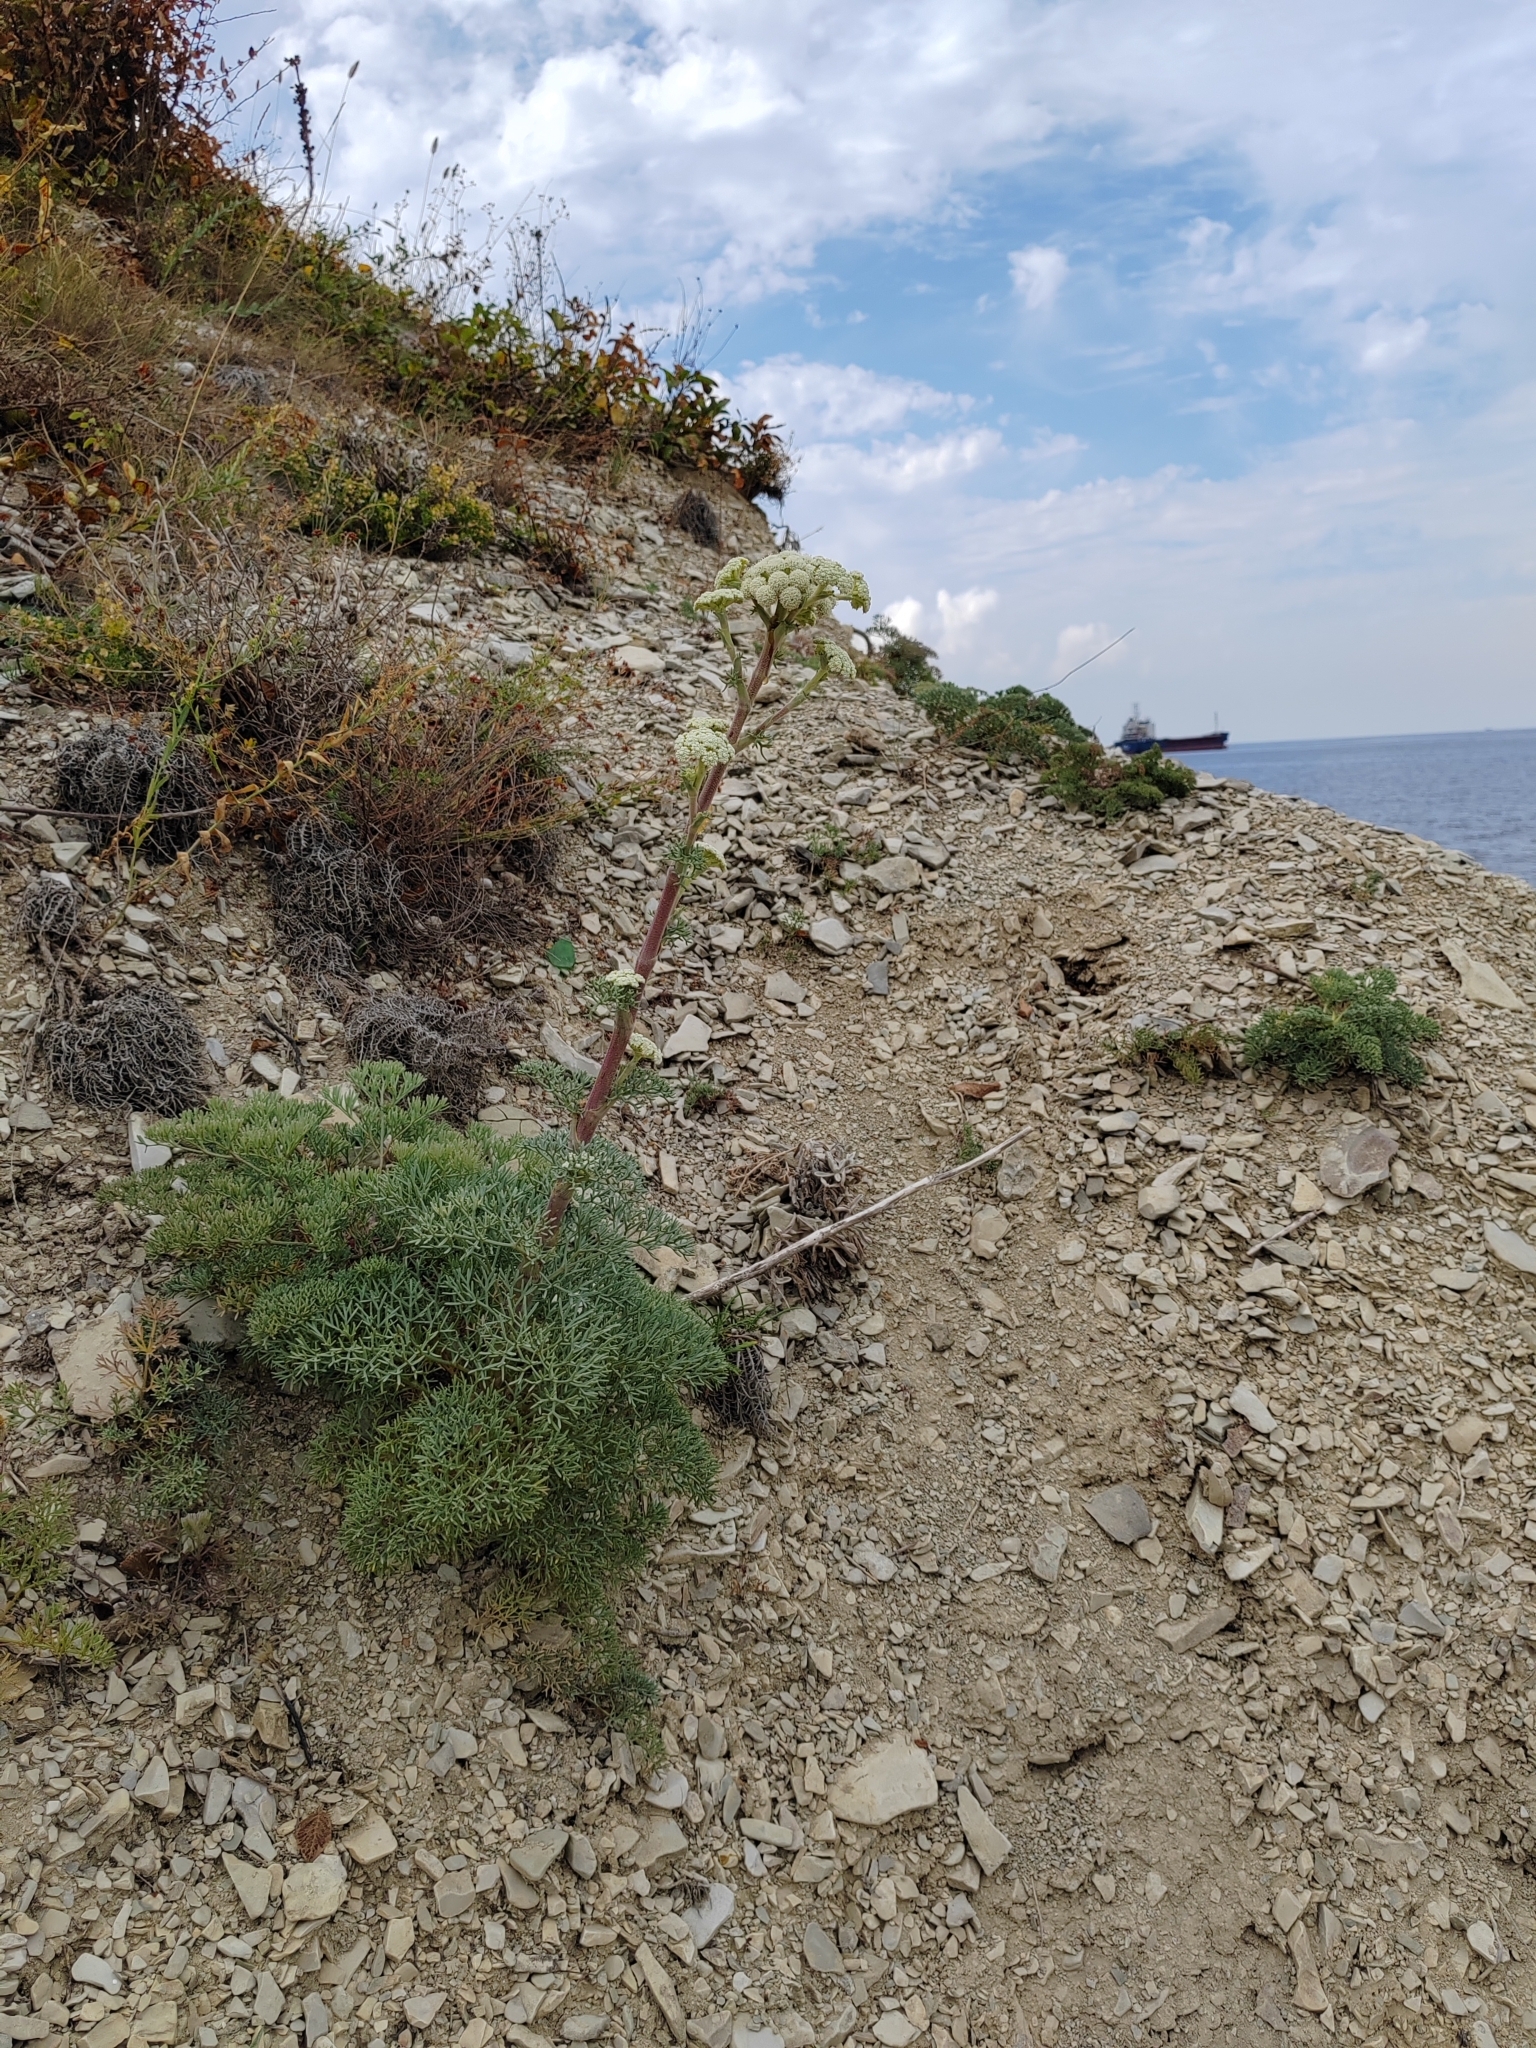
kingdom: Plantae
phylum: Tracheophyta
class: Magnoliopsida
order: Apiales
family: Apiaceae
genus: Seseli
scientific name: Seseli ponticum
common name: Pontic seseli
